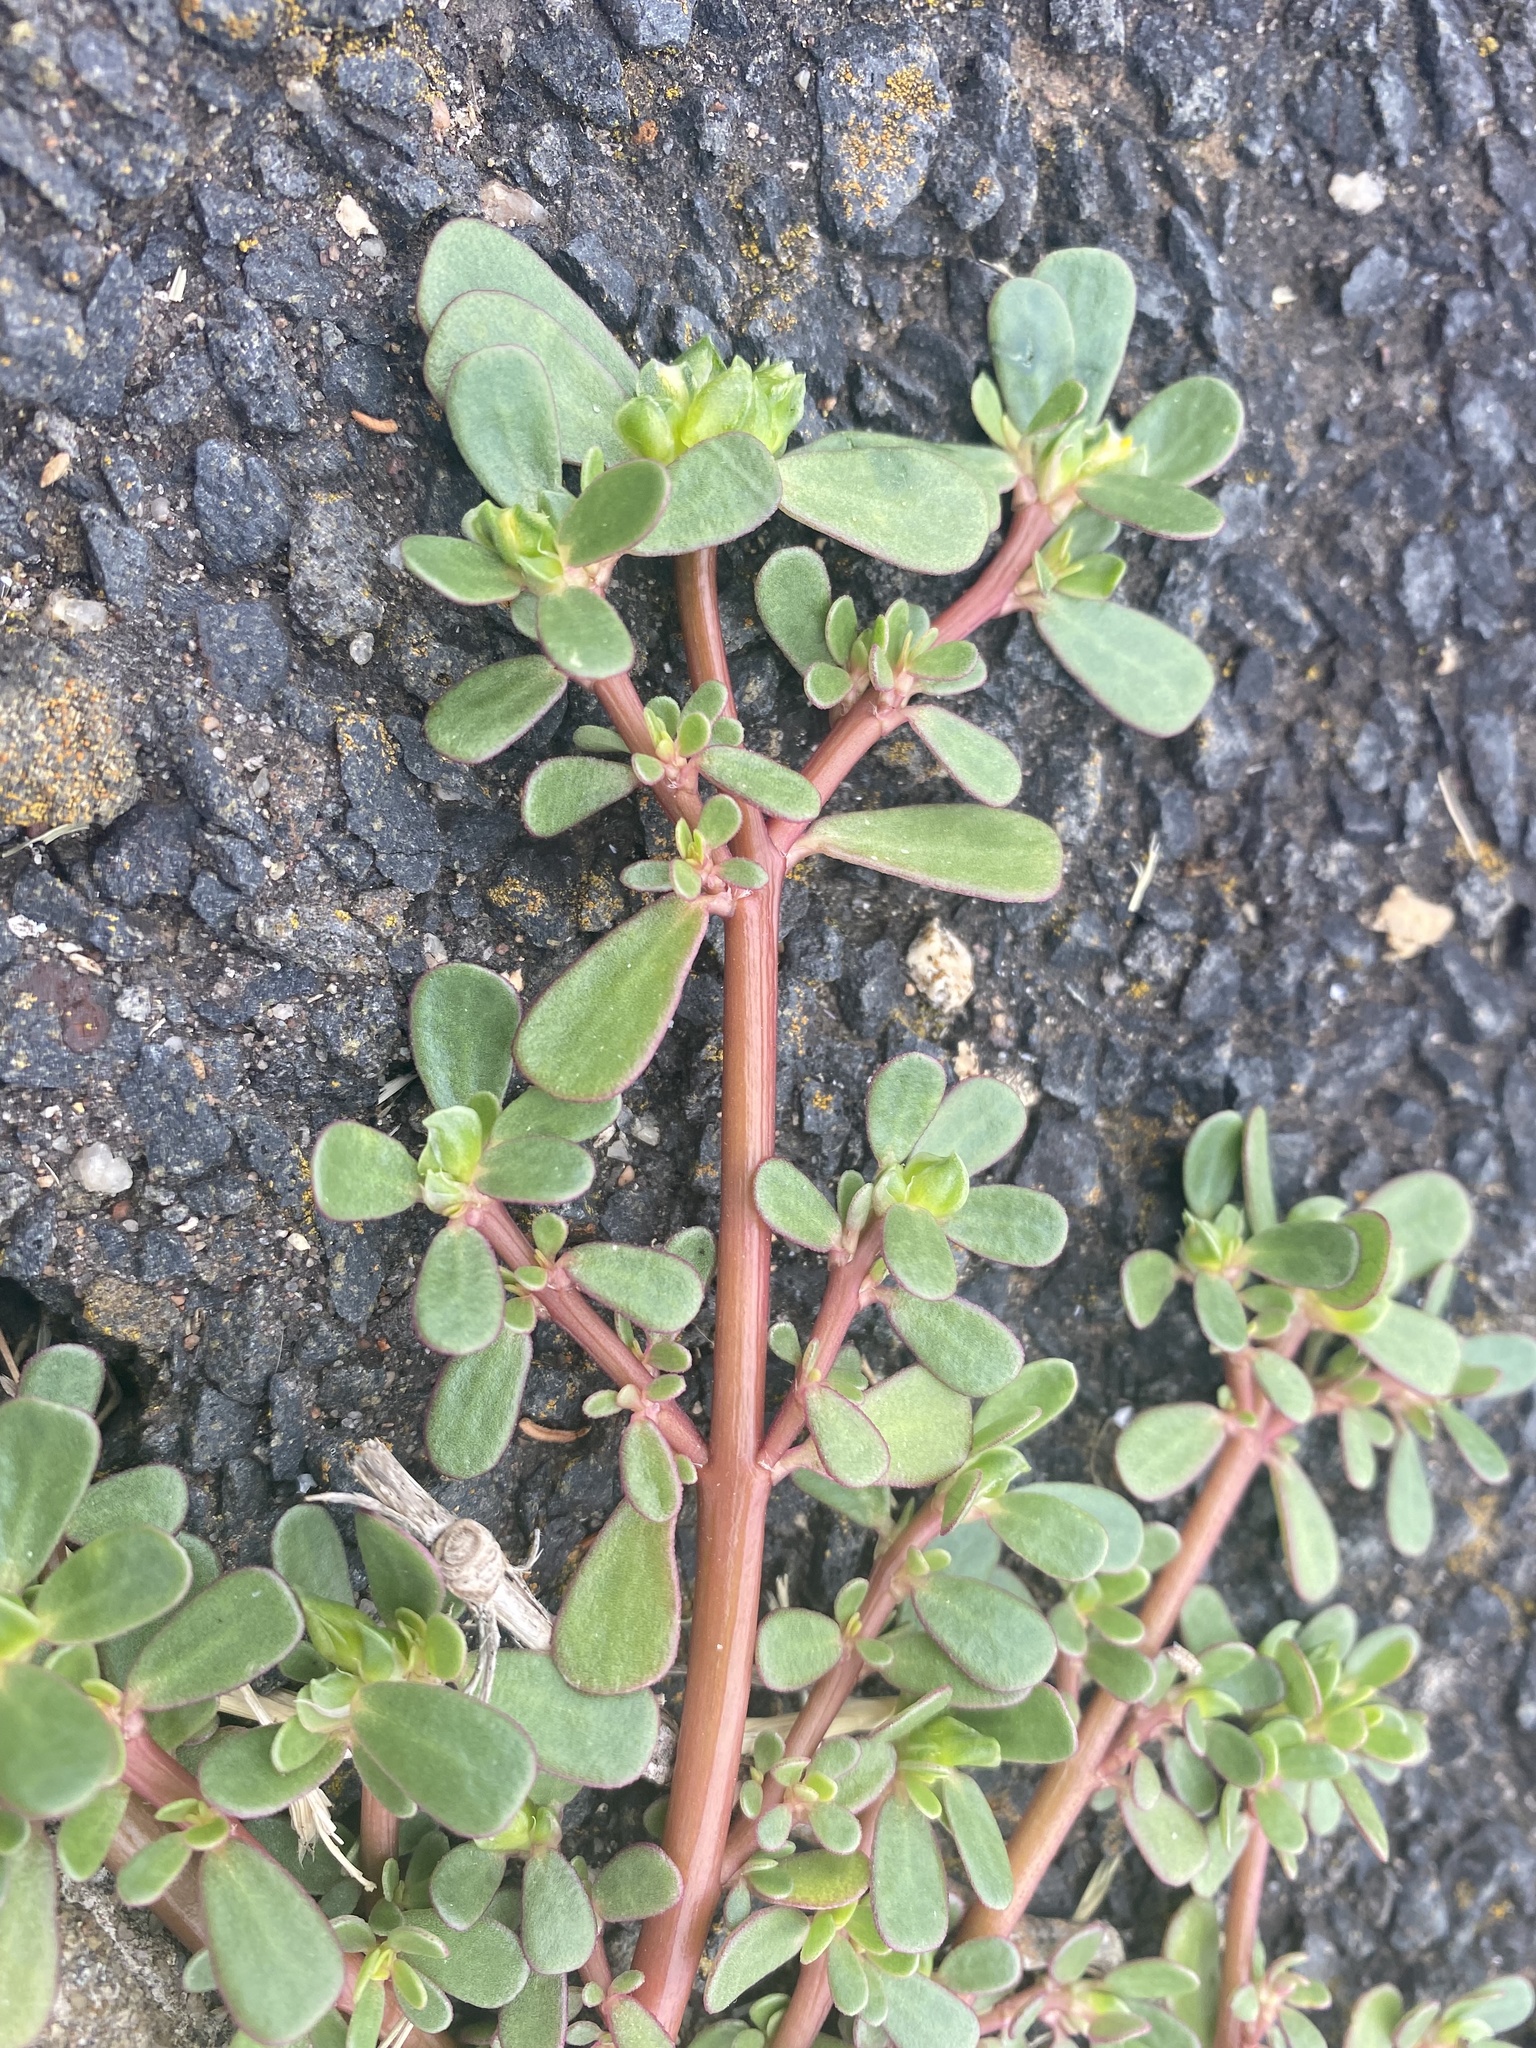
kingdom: Plantae
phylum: Tracheophyta
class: Magnoliopsida
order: Caryophyllales
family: Portulacaceae
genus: Portulaca
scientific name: Portulaca oleracea
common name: Common purslane
